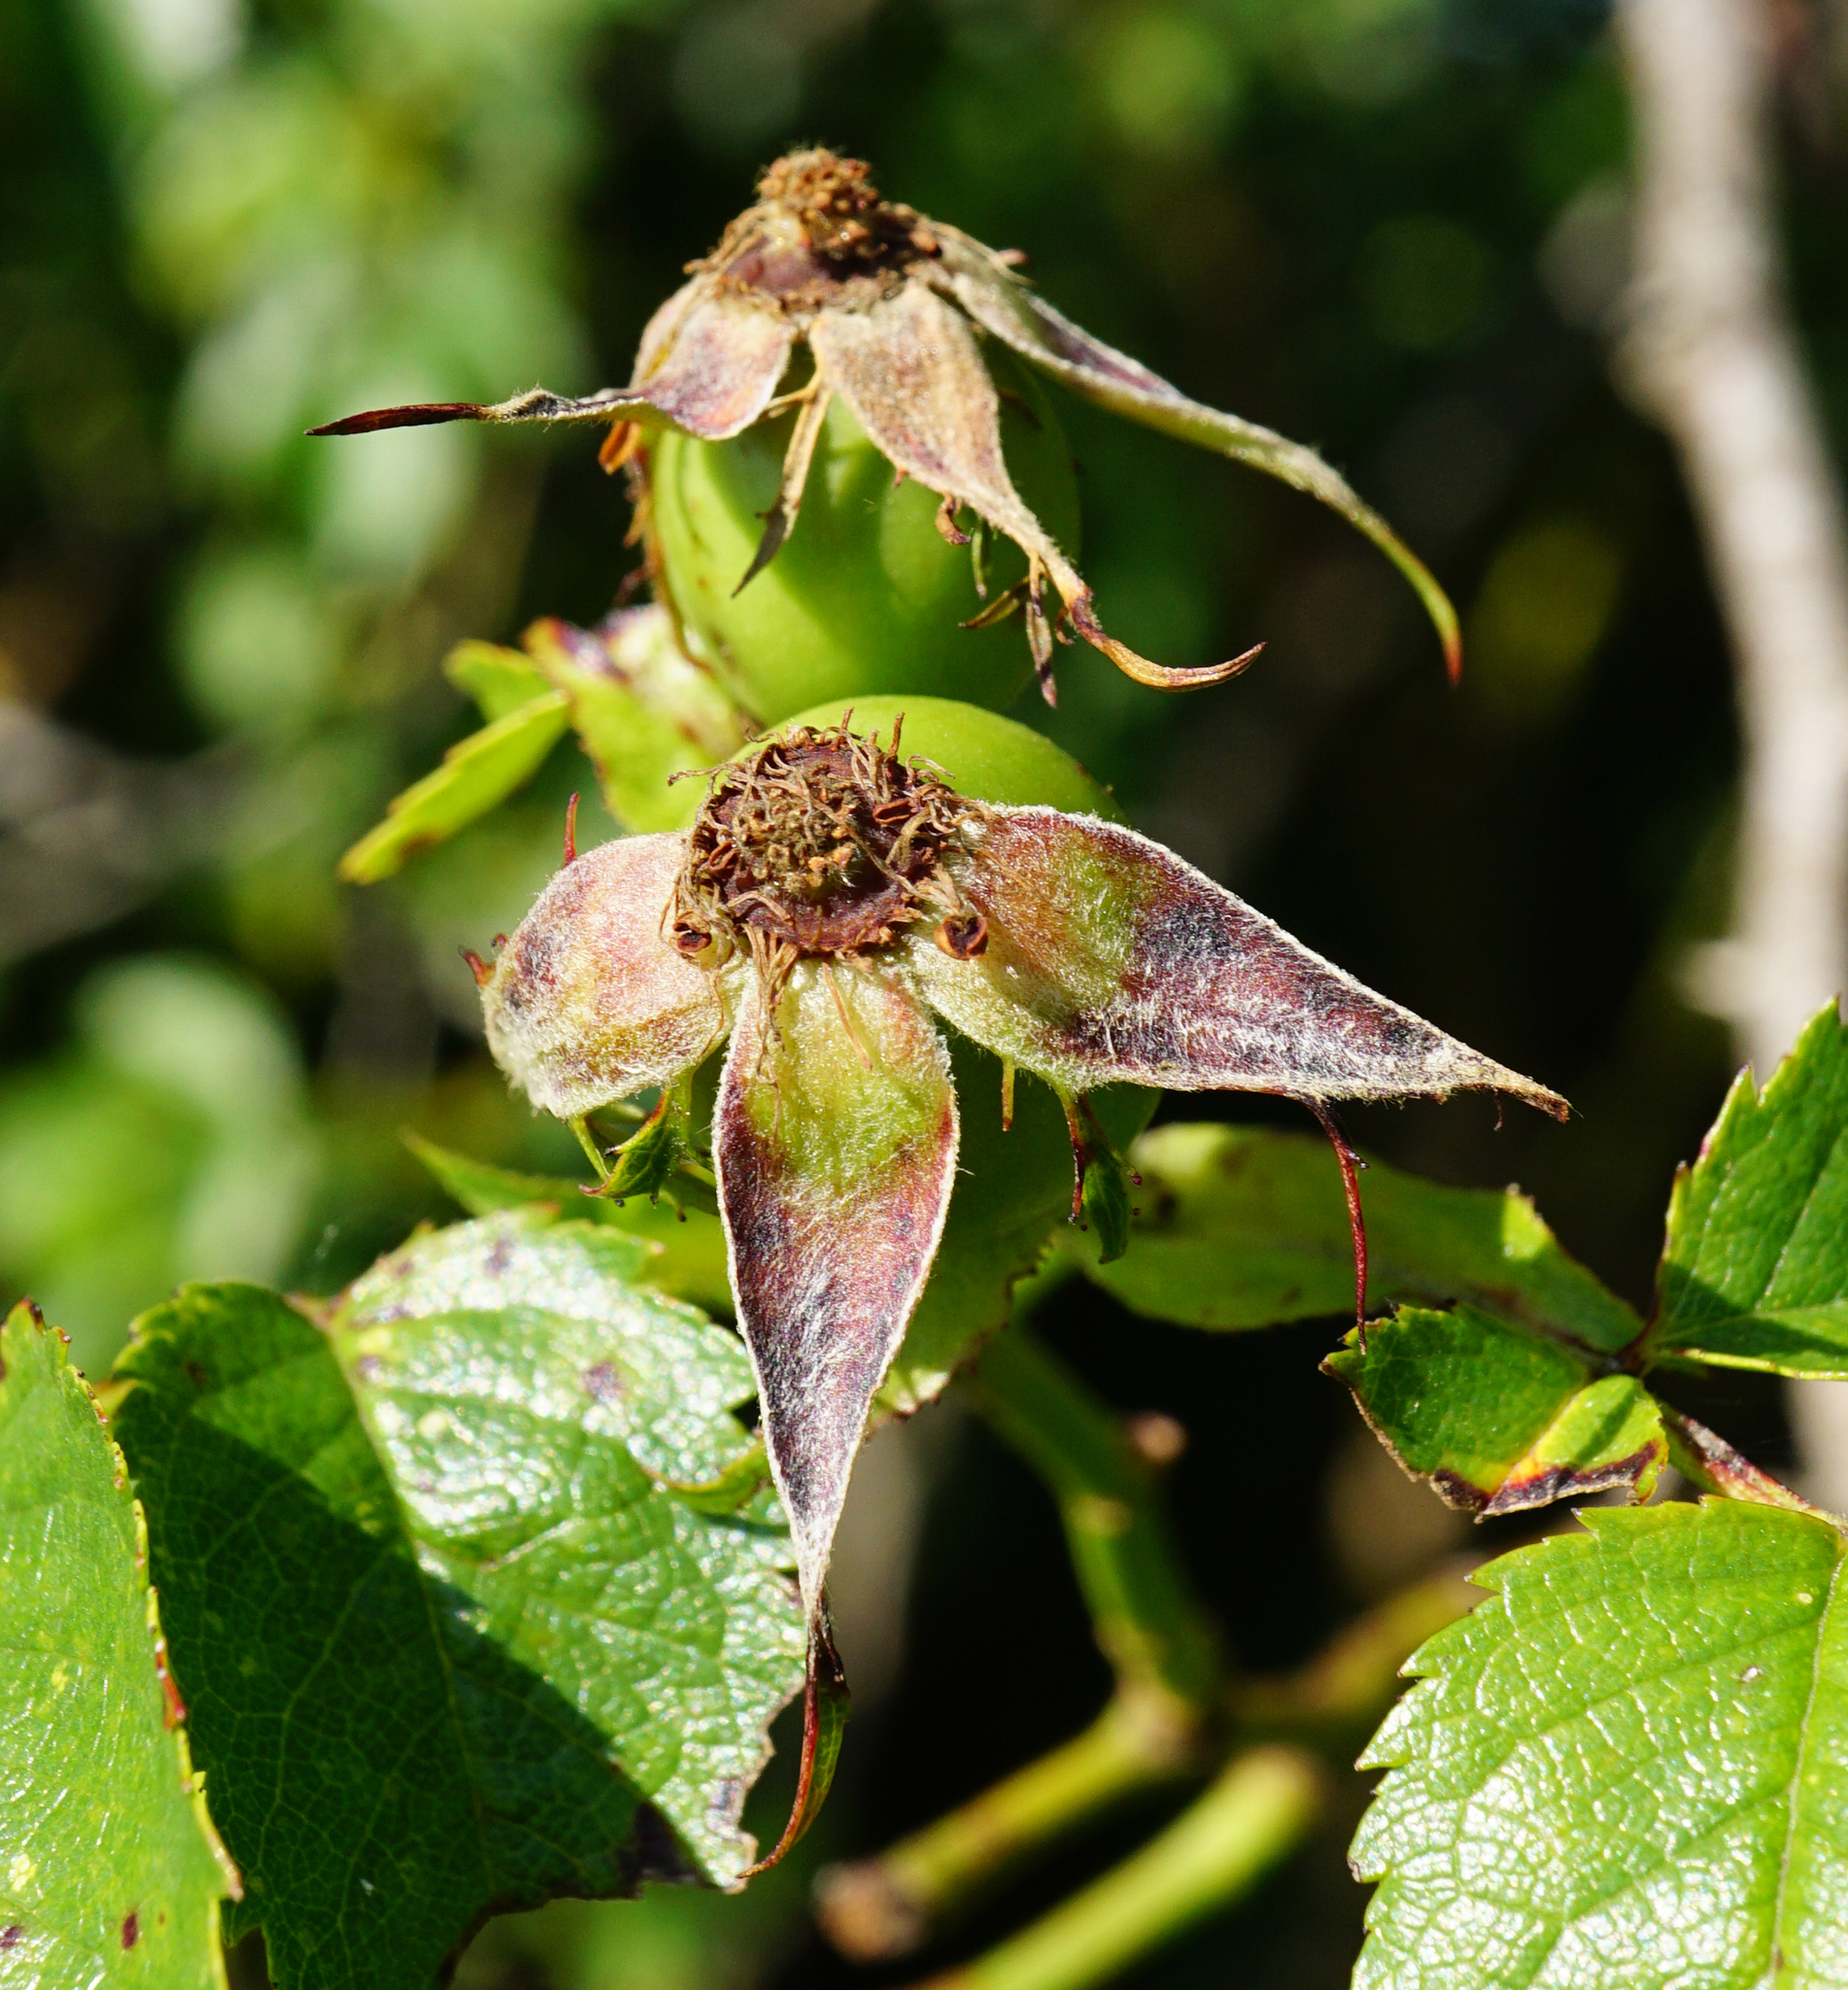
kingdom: Plantae
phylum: Tracheophyta
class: Magnoliopsida
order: Rosales
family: Rosaceae
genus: Rosa
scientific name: Rosa canina
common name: Dog rose
